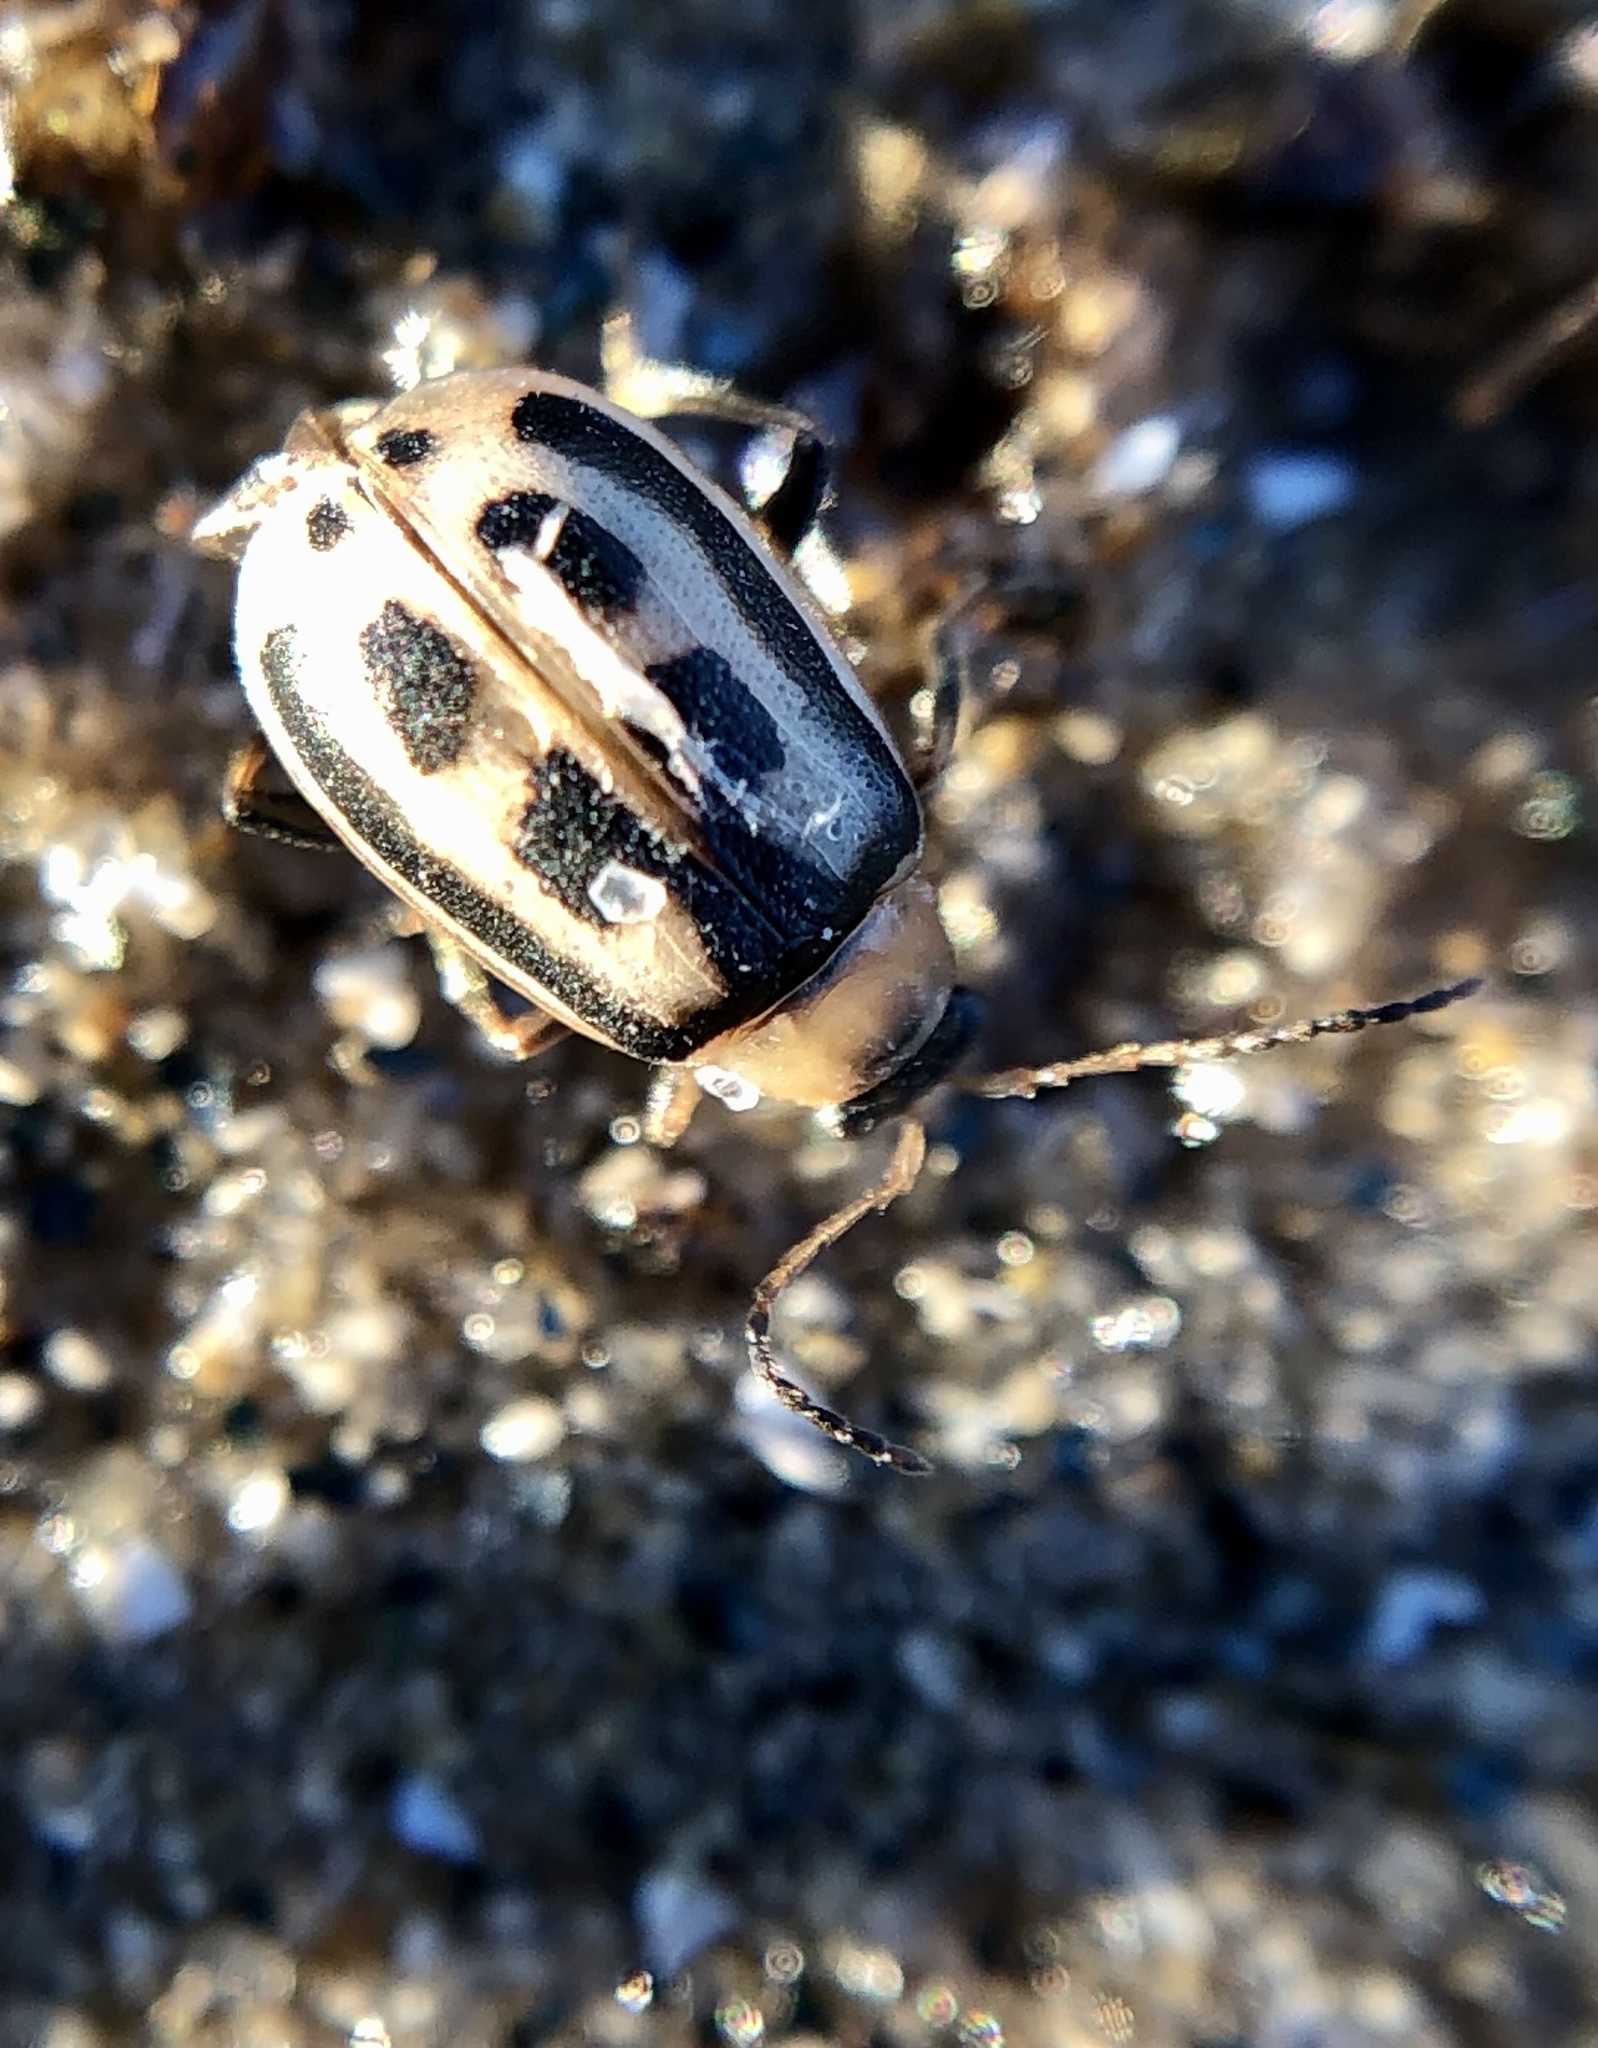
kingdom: Animalia
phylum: Arthropoda
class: Insecta
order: Coleoptera
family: Chrysomelidae
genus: Cerotoma
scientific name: Cerotoma trifurcata
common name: Bean leaf beetle
